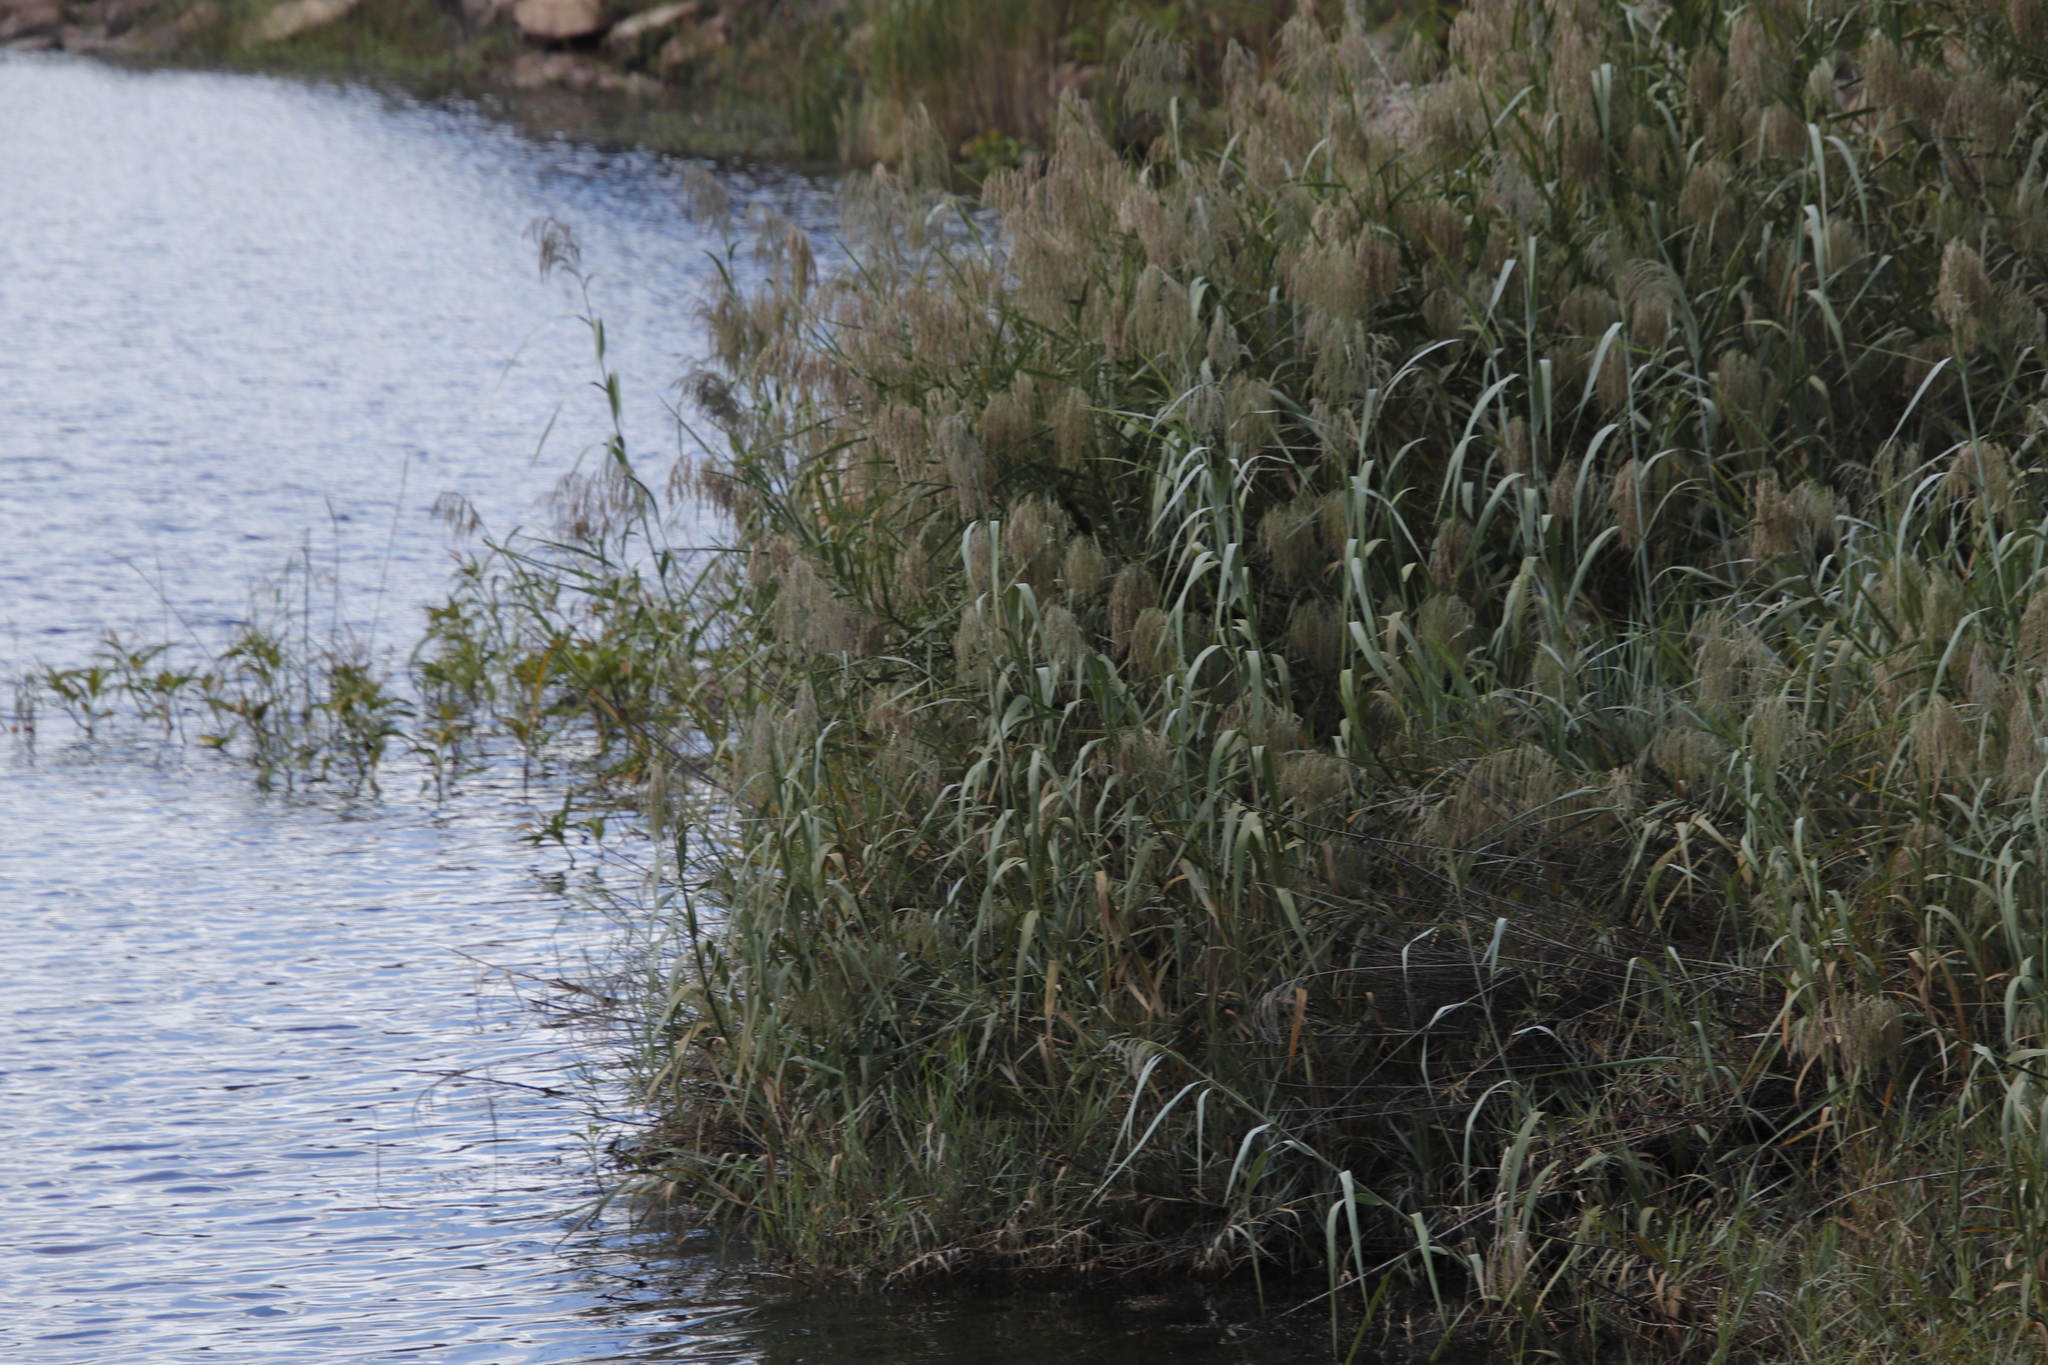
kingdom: Plantae
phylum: Tracheophyta
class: Liliopsida
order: Poales
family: Poaceae
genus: Phragmites
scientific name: Phragmites australis
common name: Common reed
